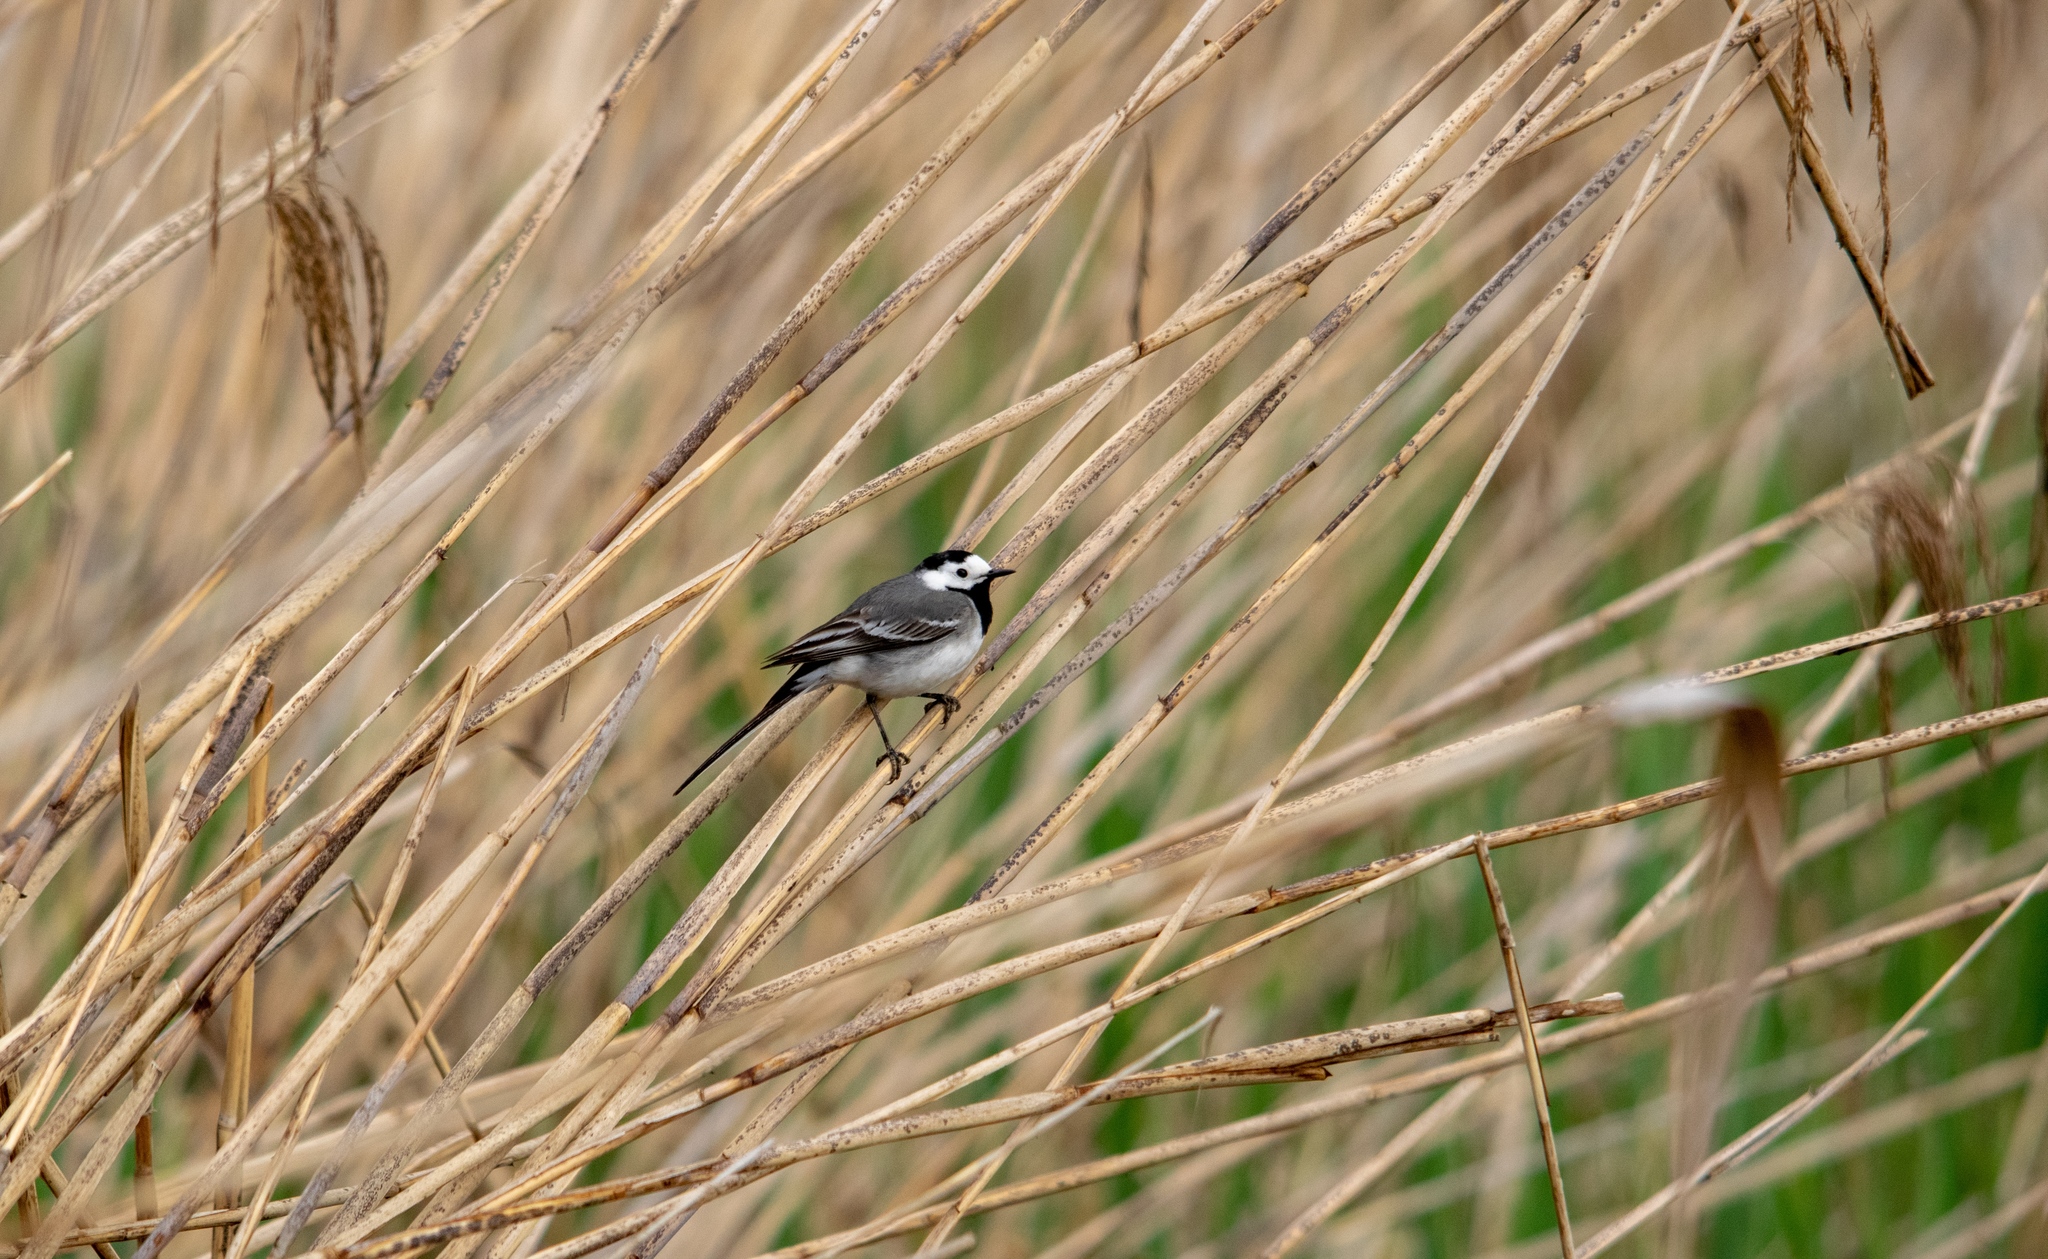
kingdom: Animalia
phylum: Chordata
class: Aves
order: Passeriformes
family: Motacillidae
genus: Motacilla
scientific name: Motacilla alba
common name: White wagtail
